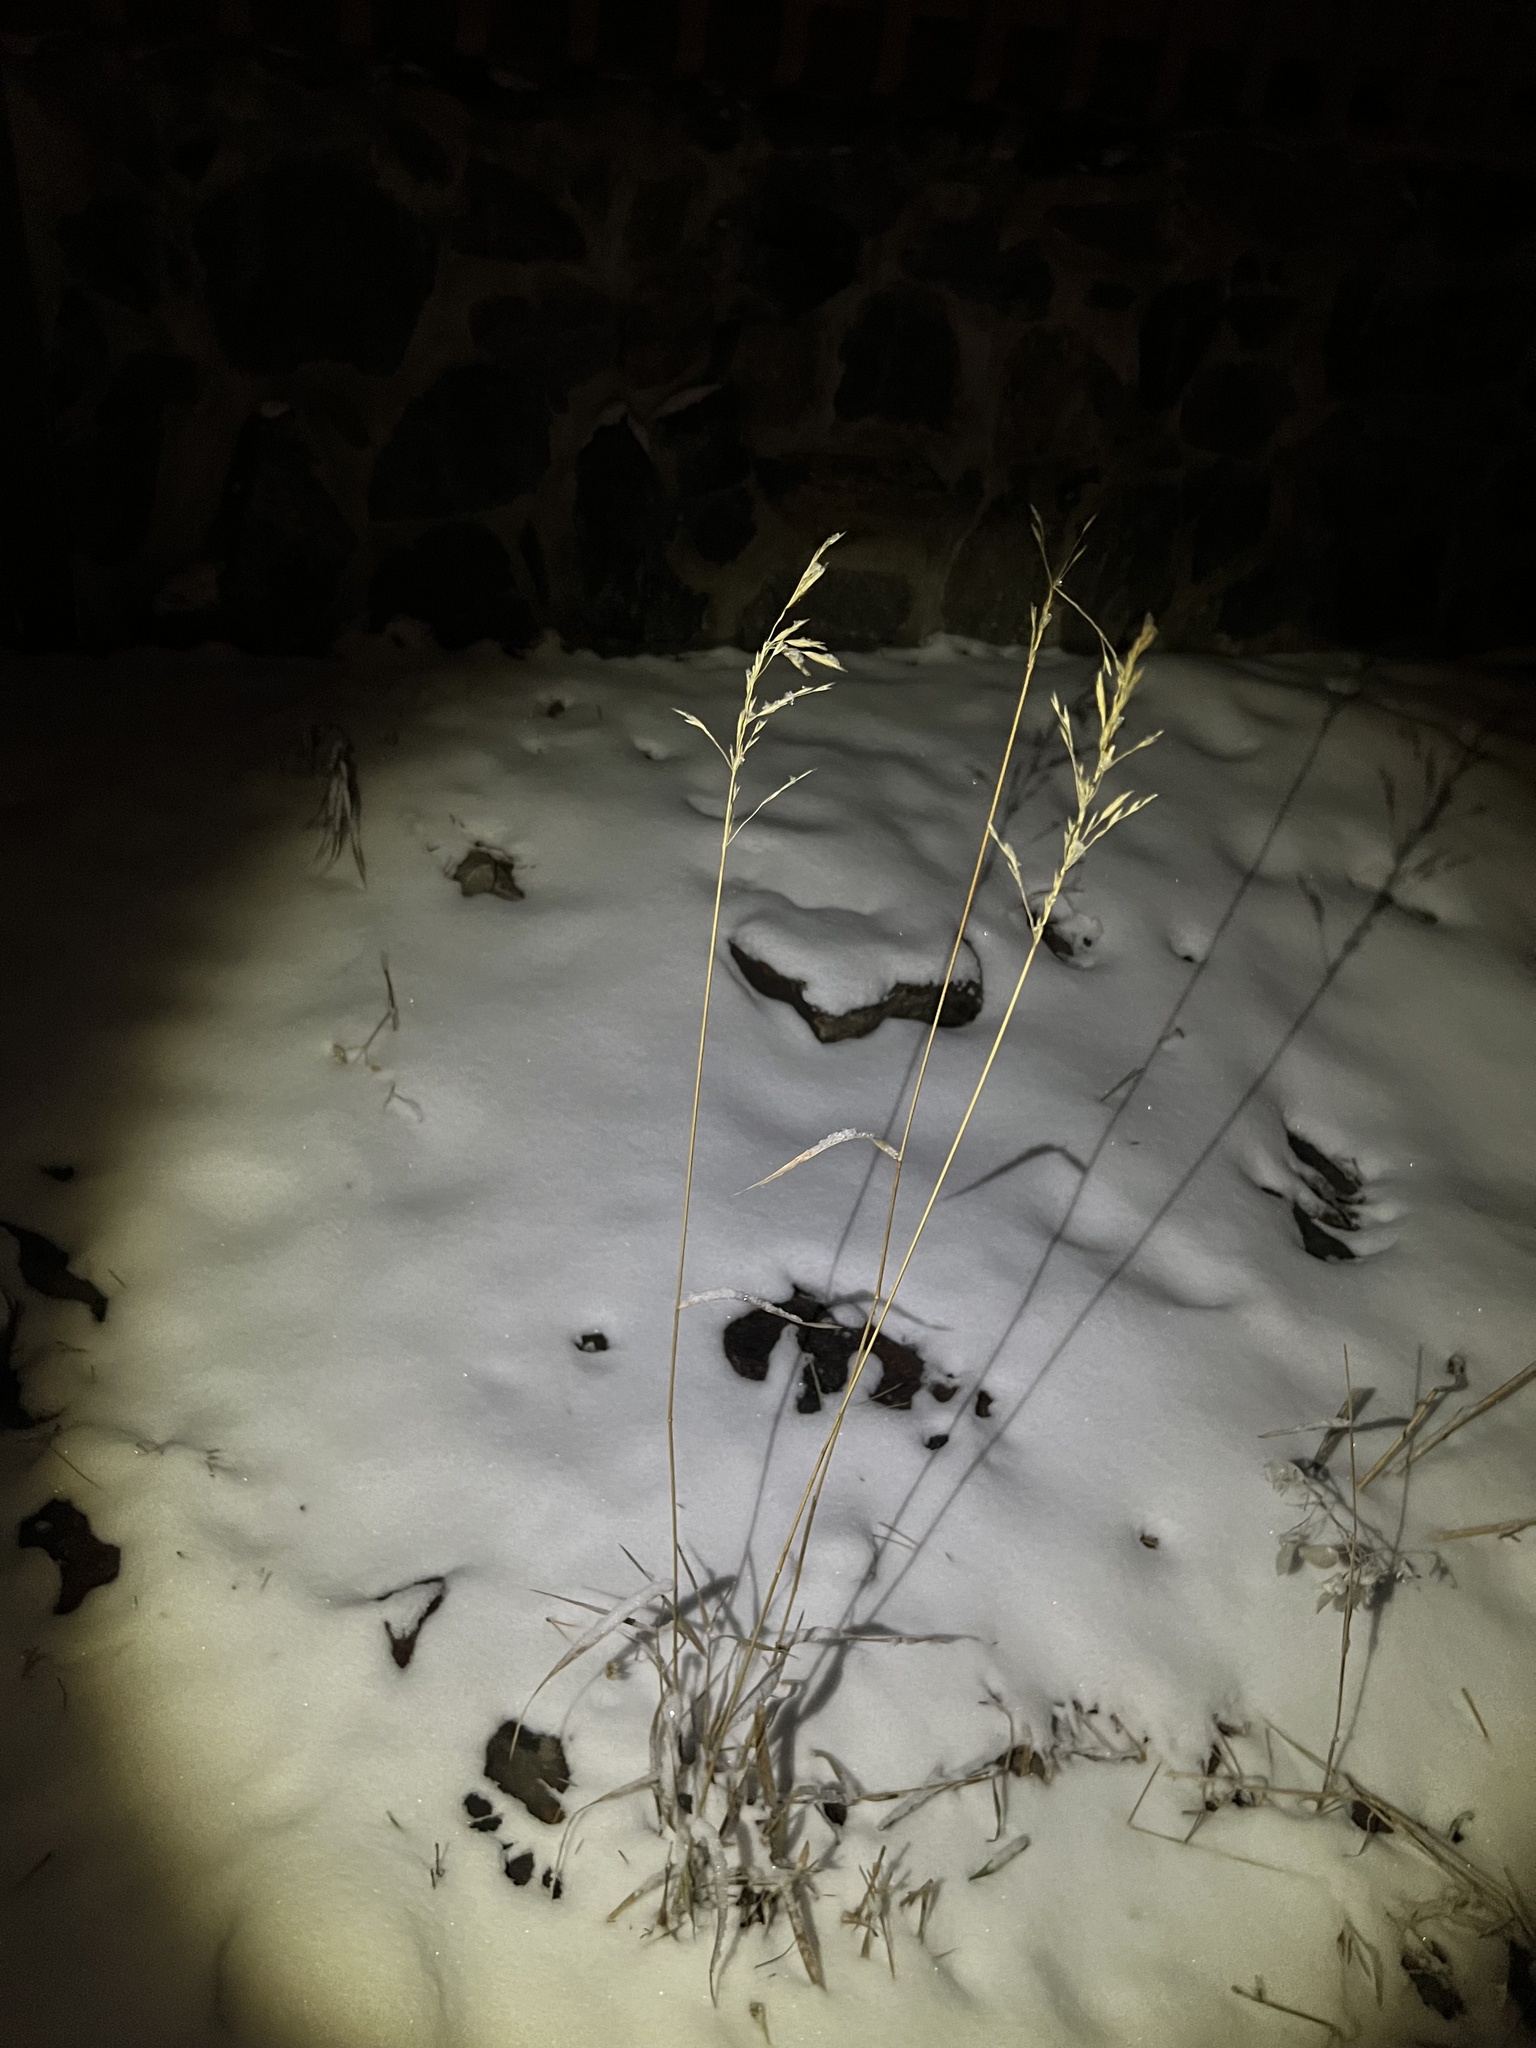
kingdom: Plantae
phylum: Tracheophyta
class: Liliopsida
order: Poales
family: Poaceae
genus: Bromus
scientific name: Bromus inermis
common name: Smooth brome
